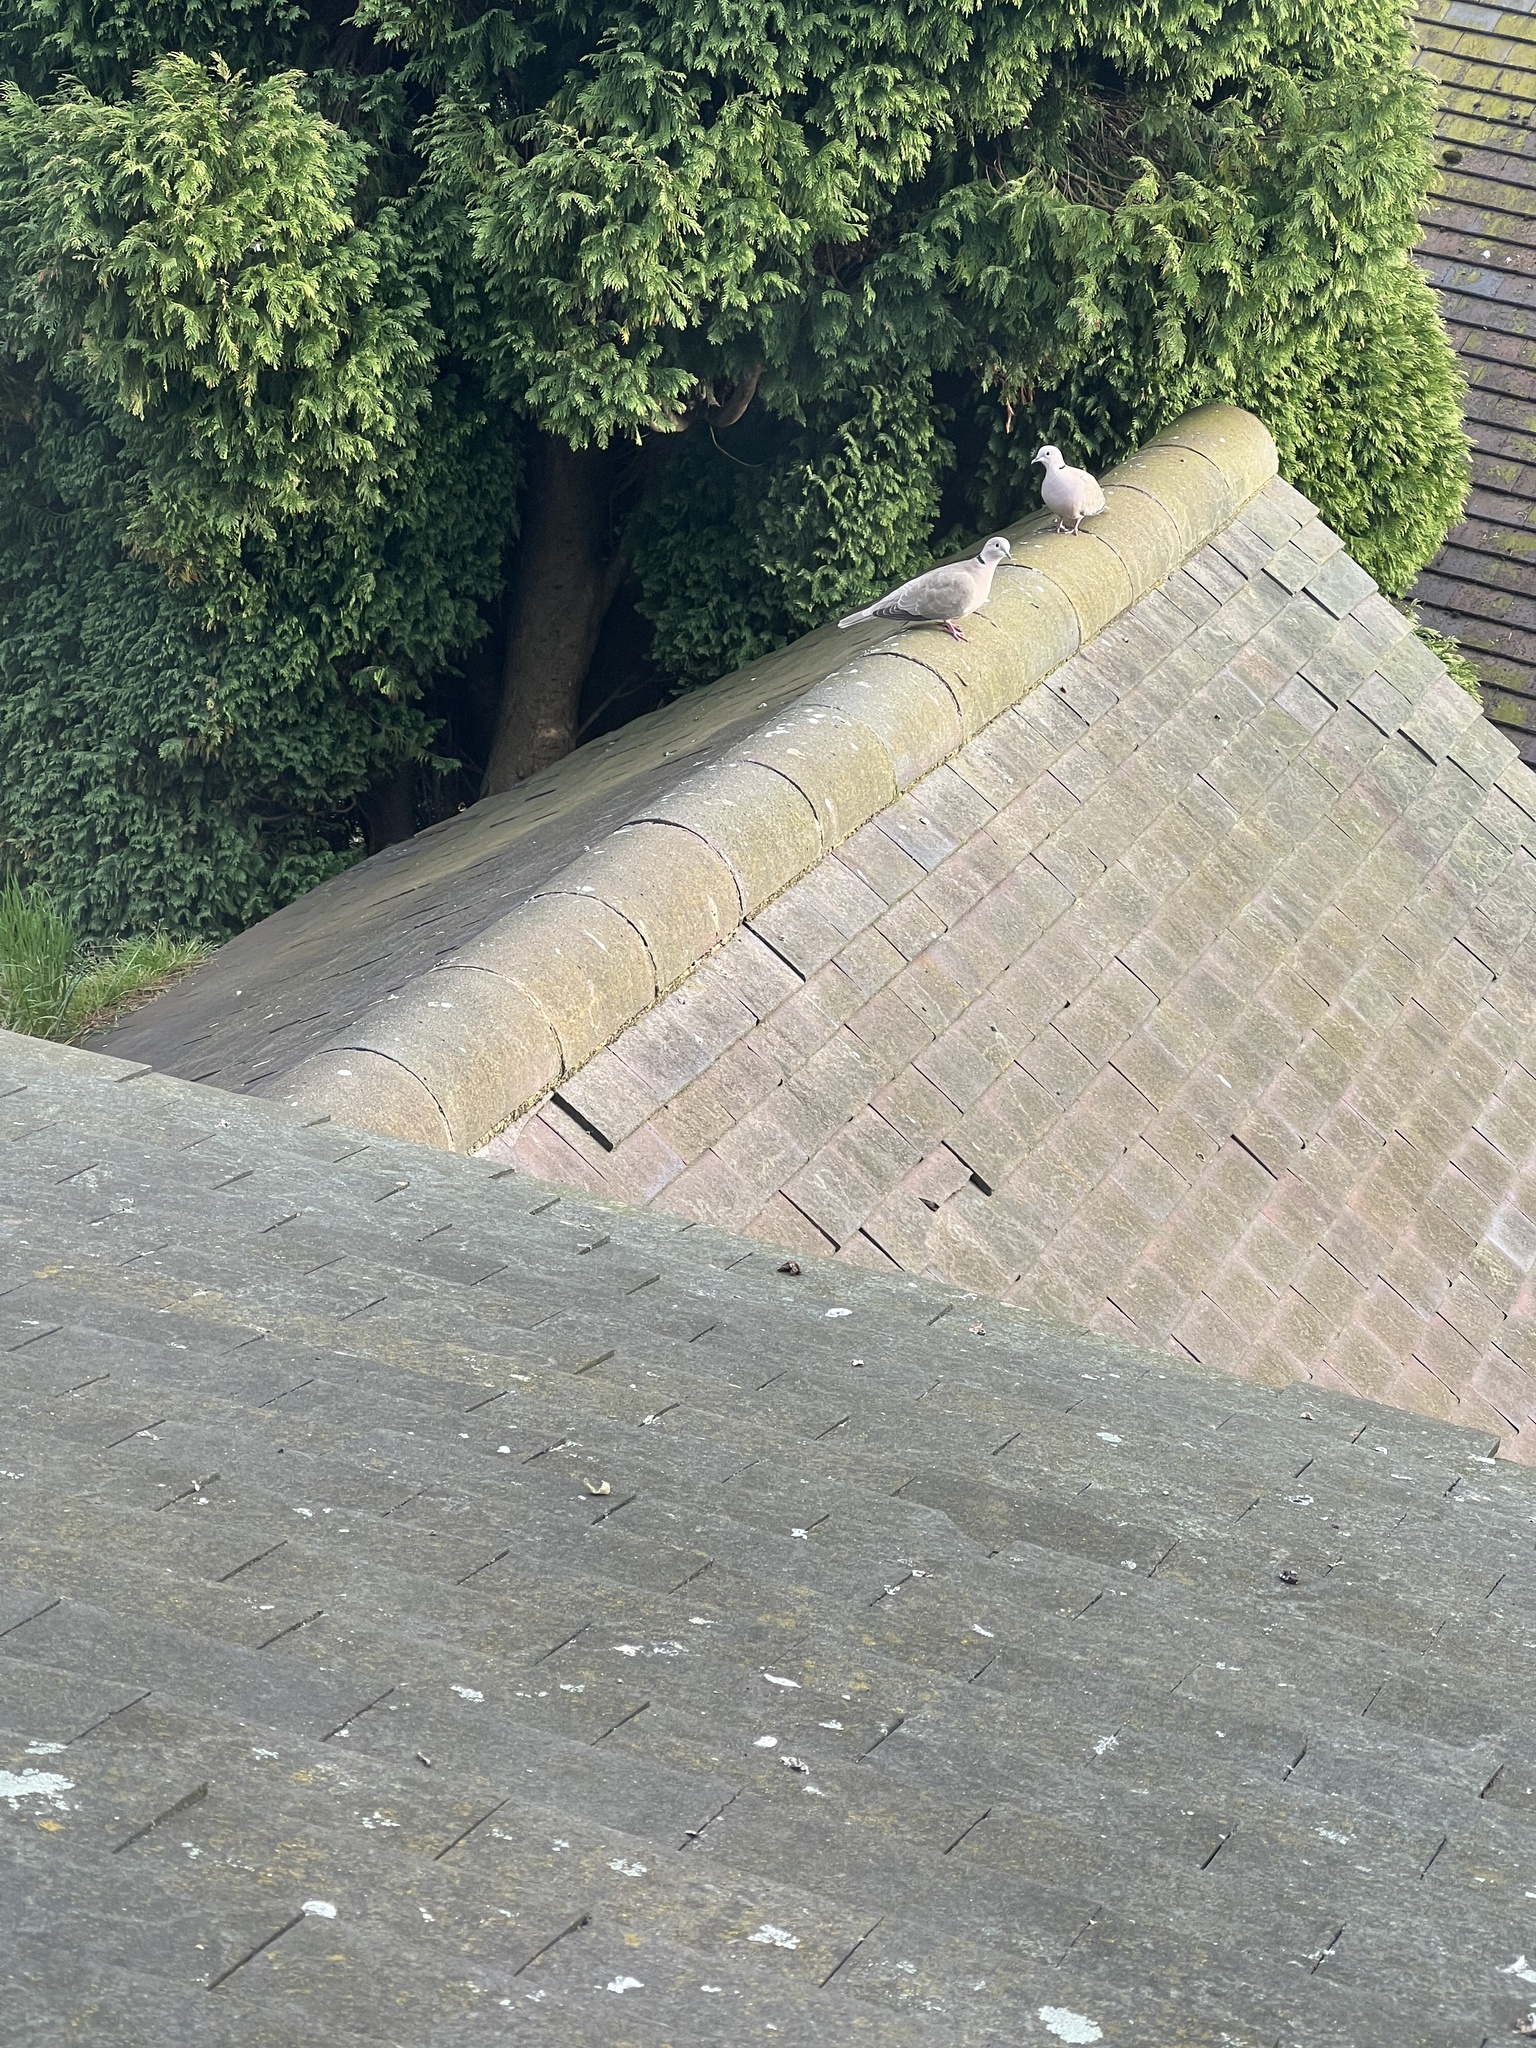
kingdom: Animalia
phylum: Chordata
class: Aves
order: Columbiformes
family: Columbidae
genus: Streptopelia
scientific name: Streptopelia decaocto
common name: Eurasian collared dove
